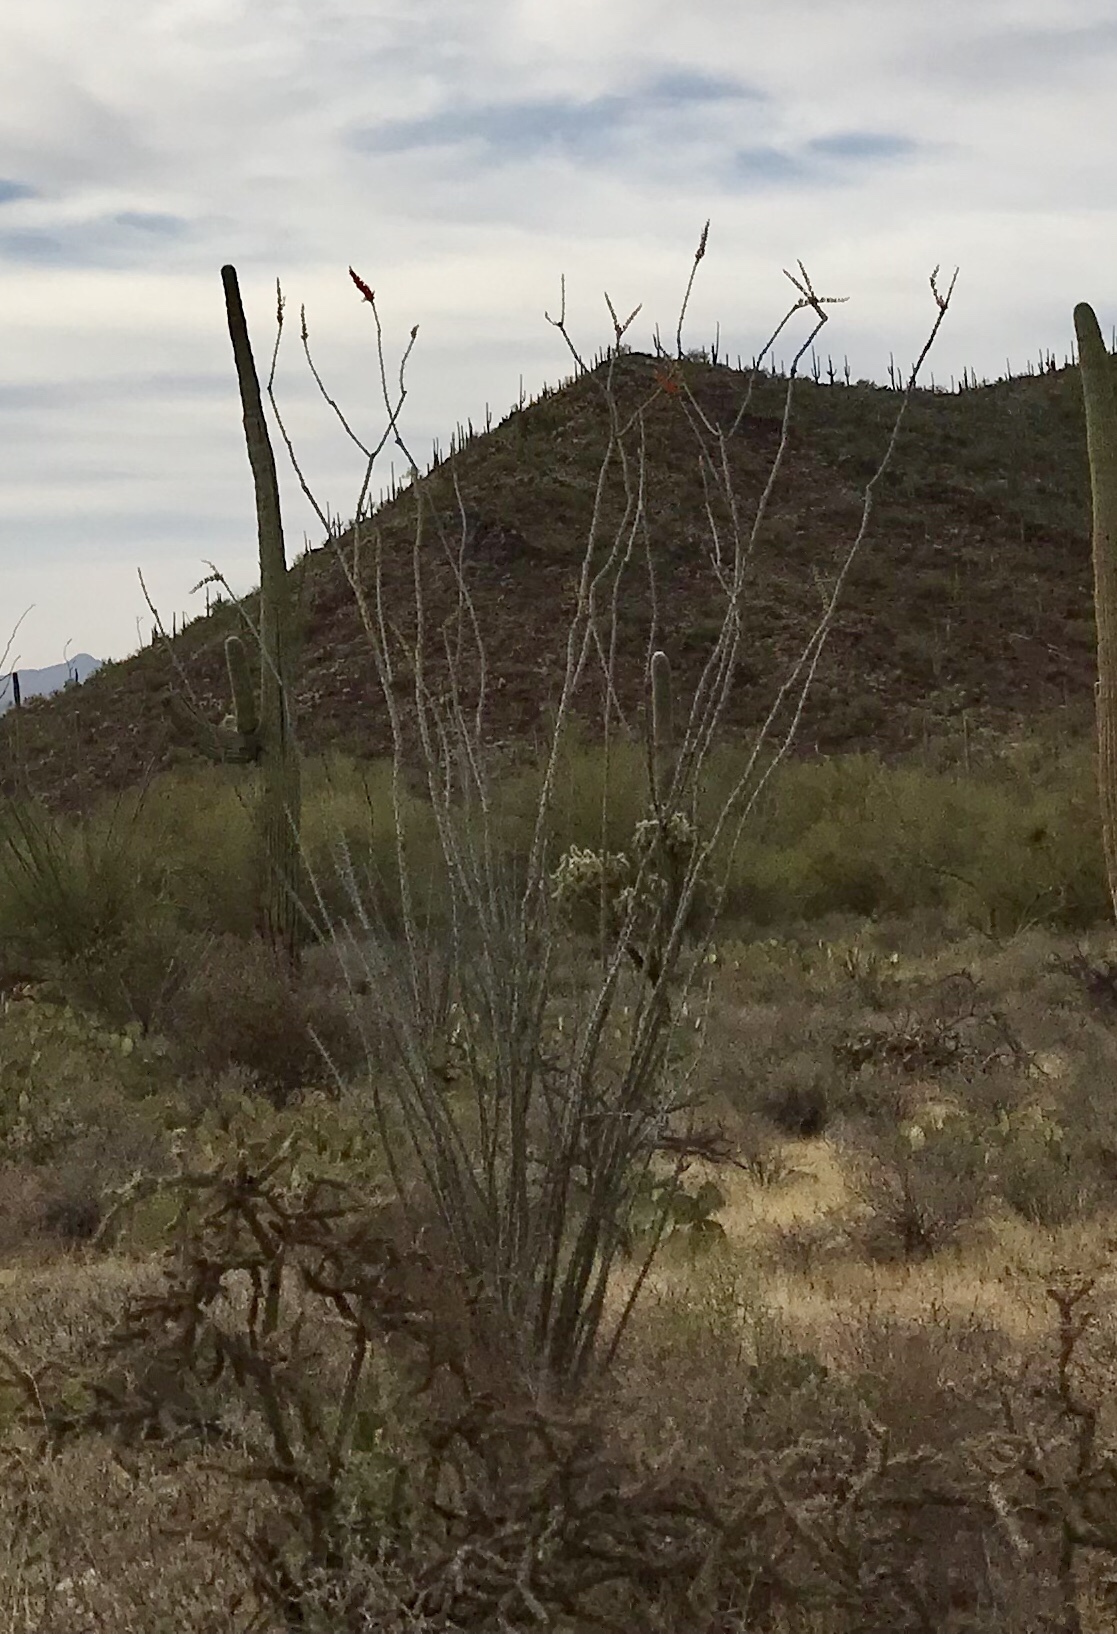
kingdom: Plantae
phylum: Tracheophyta
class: Magnoliopsida
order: Ericales
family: Fouquieriaceae
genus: Fouquieria
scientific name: Fouquieria splendens
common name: Vine-cactus
